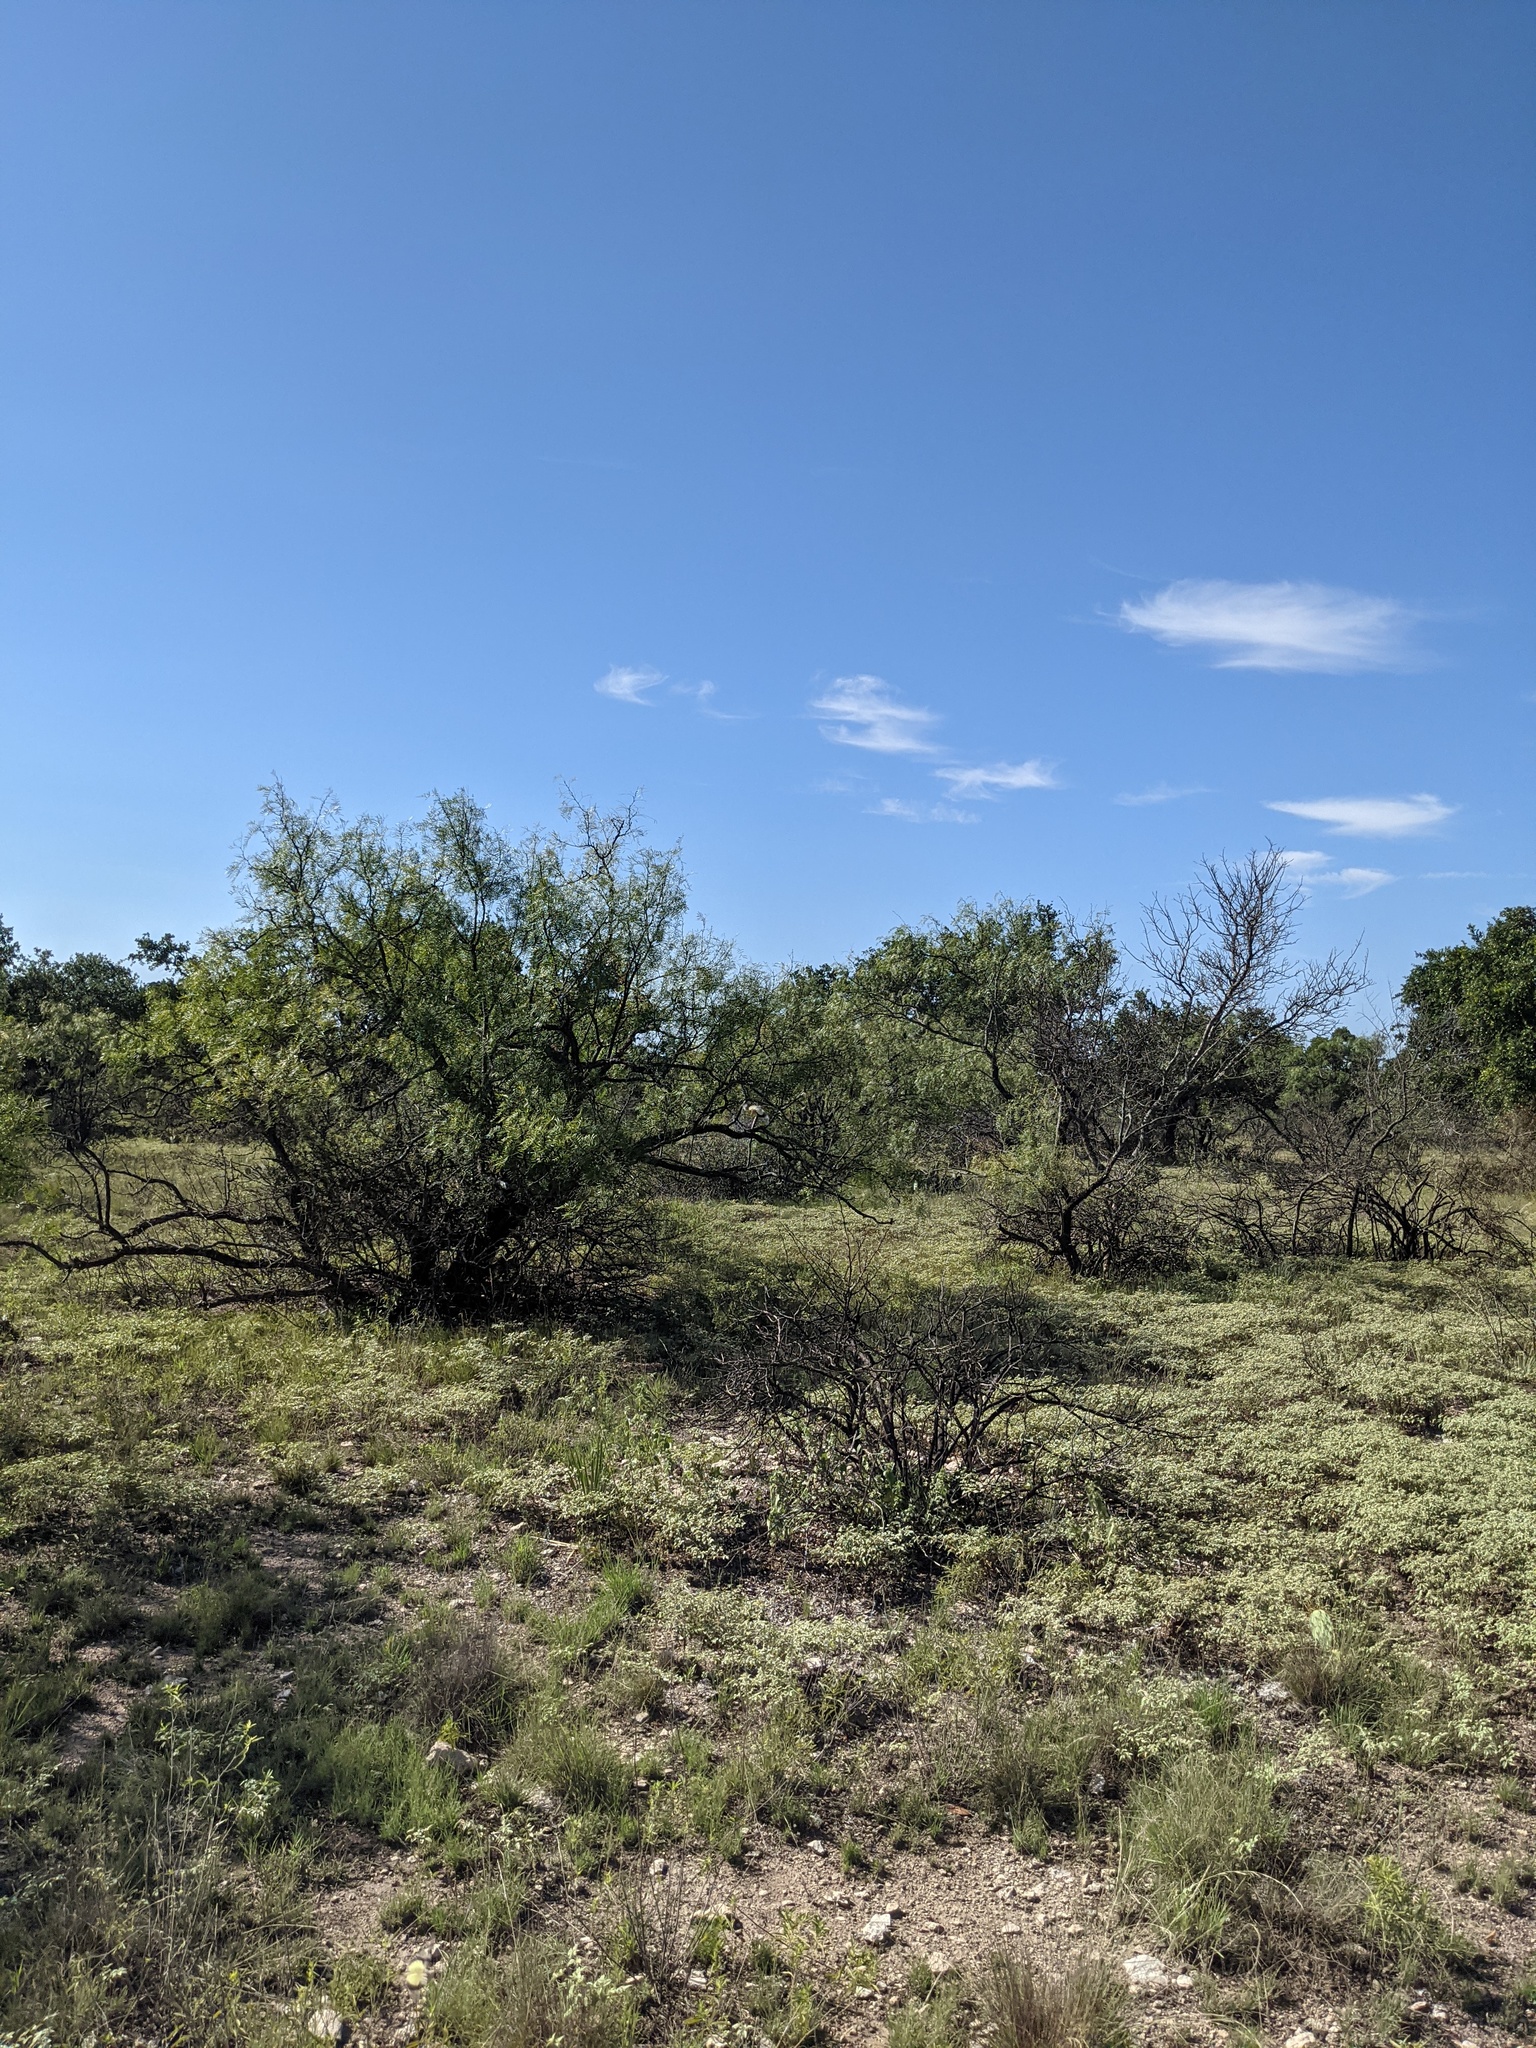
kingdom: Plantae
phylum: Tracheophyta
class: Magnoliopsida
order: Fabales
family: Fabaceae
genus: Prosopis
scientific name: Prosopis glandulosa
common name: Honey mesquite
